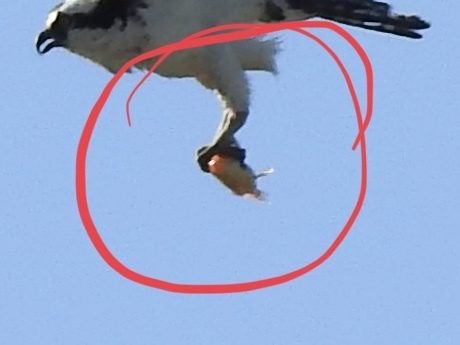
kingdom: Animalia
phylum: Chordata
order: Perciformes
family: Centrarchidae
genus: Lepomis
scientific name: Lepomis macrochirus
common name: Bluegill
